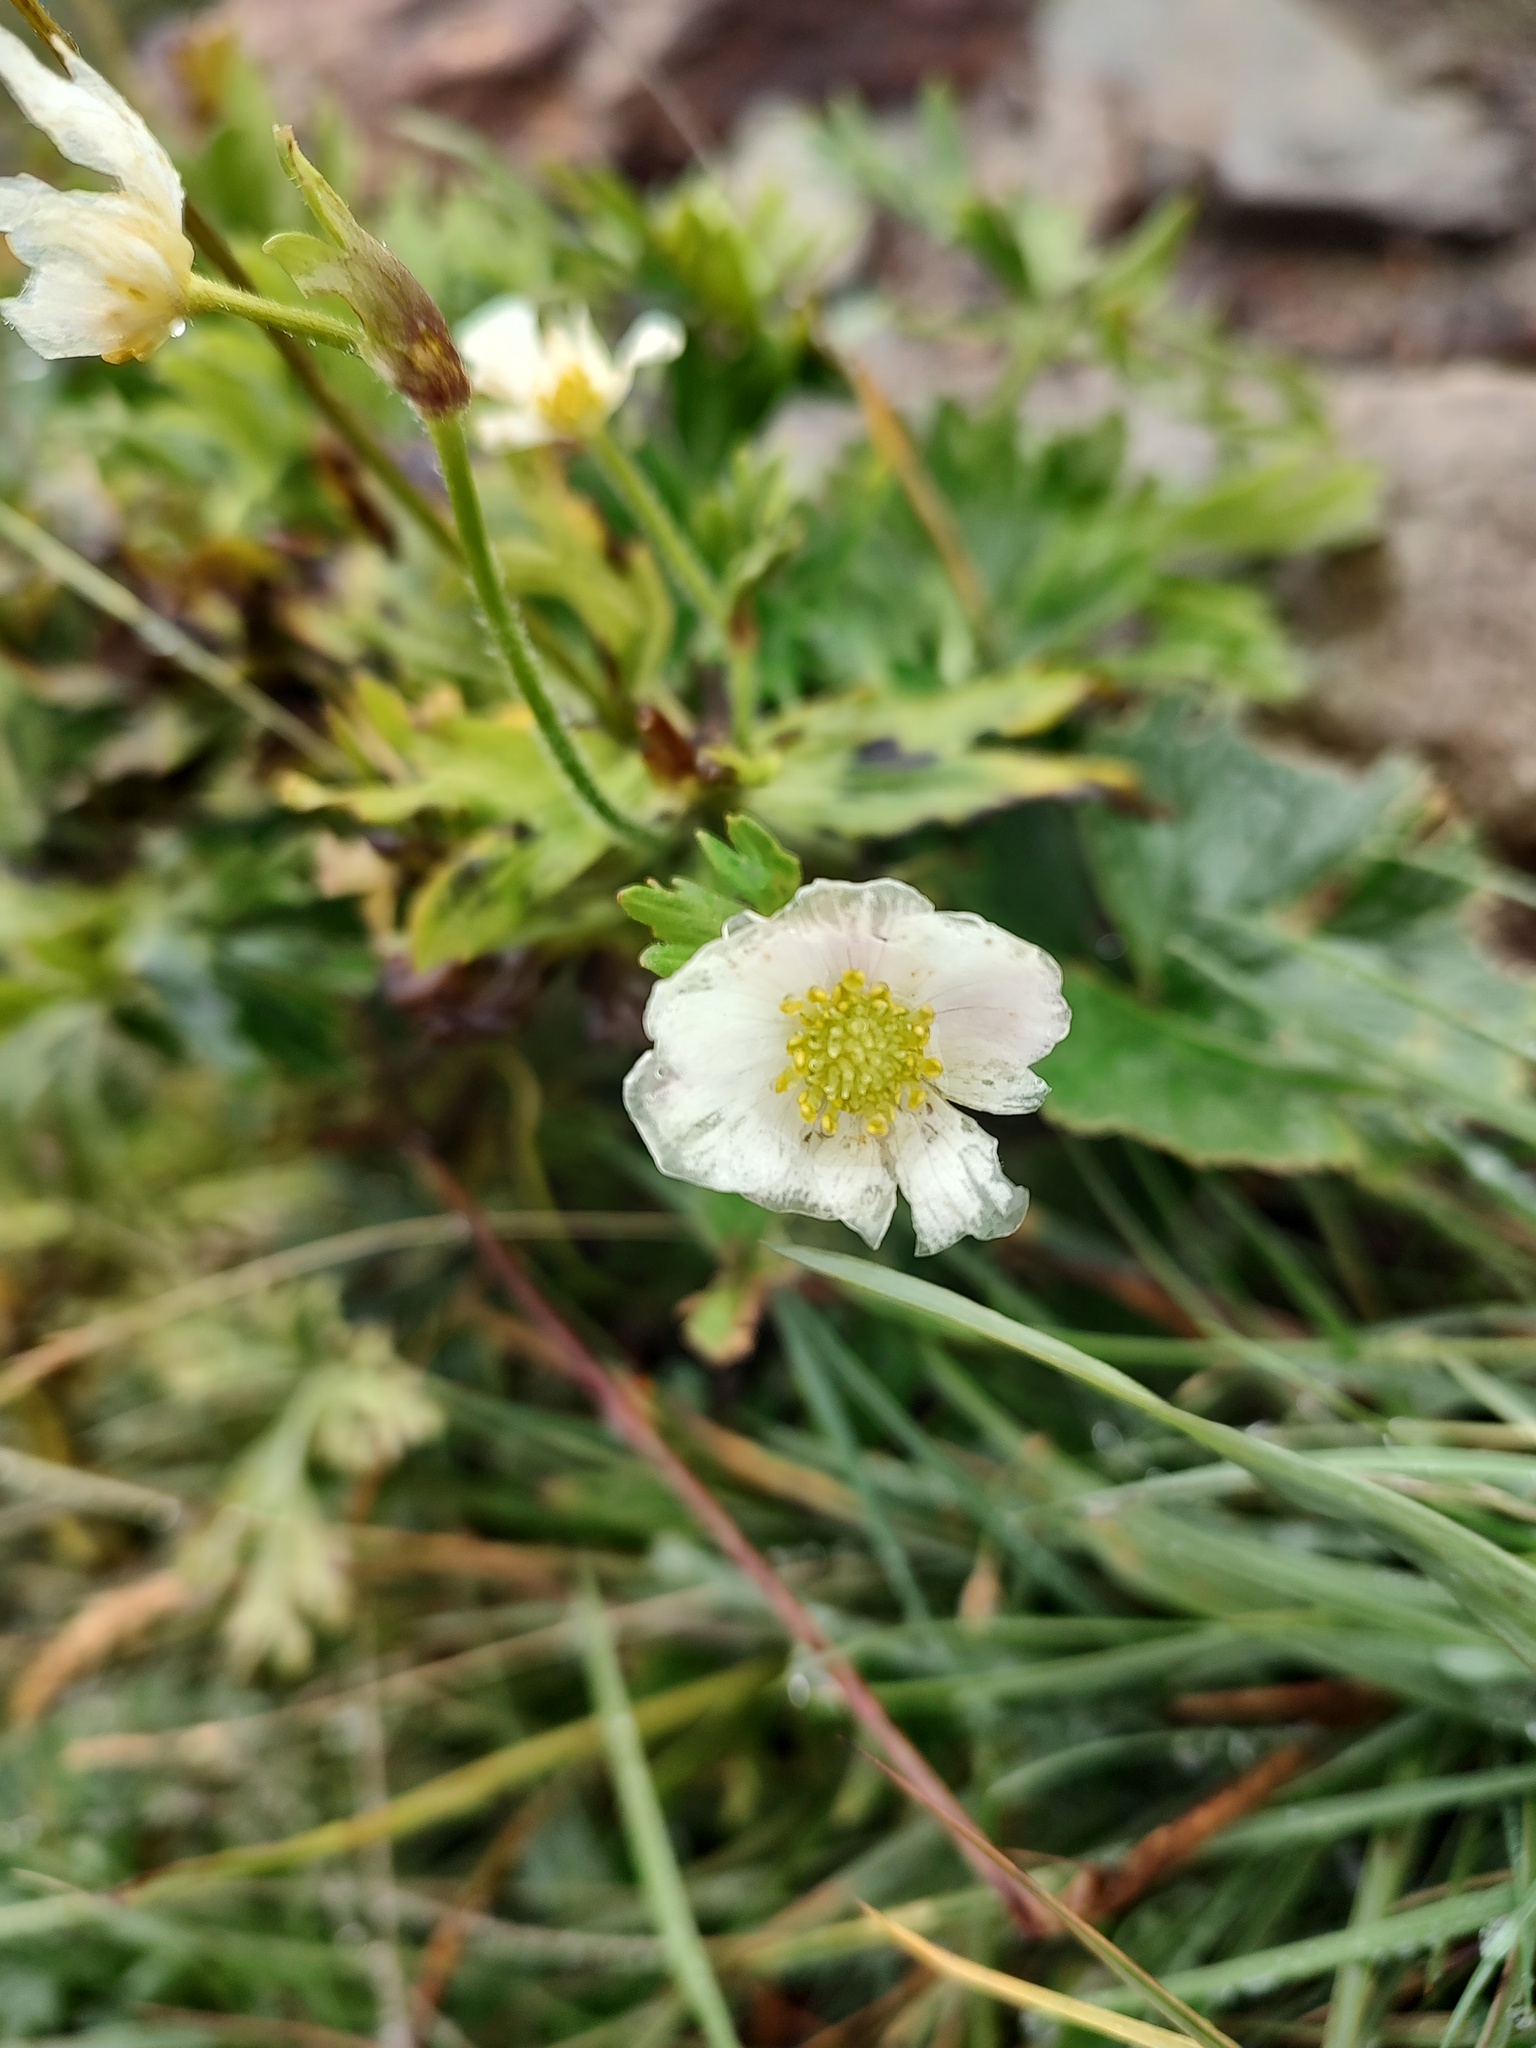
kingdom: Plantae
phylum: Tracheophyta
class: Magnoliopsida
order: Ranunculales
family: Ranunculaceae
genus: Anemonastrum
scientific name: Anemonastrum narcissiflorum
